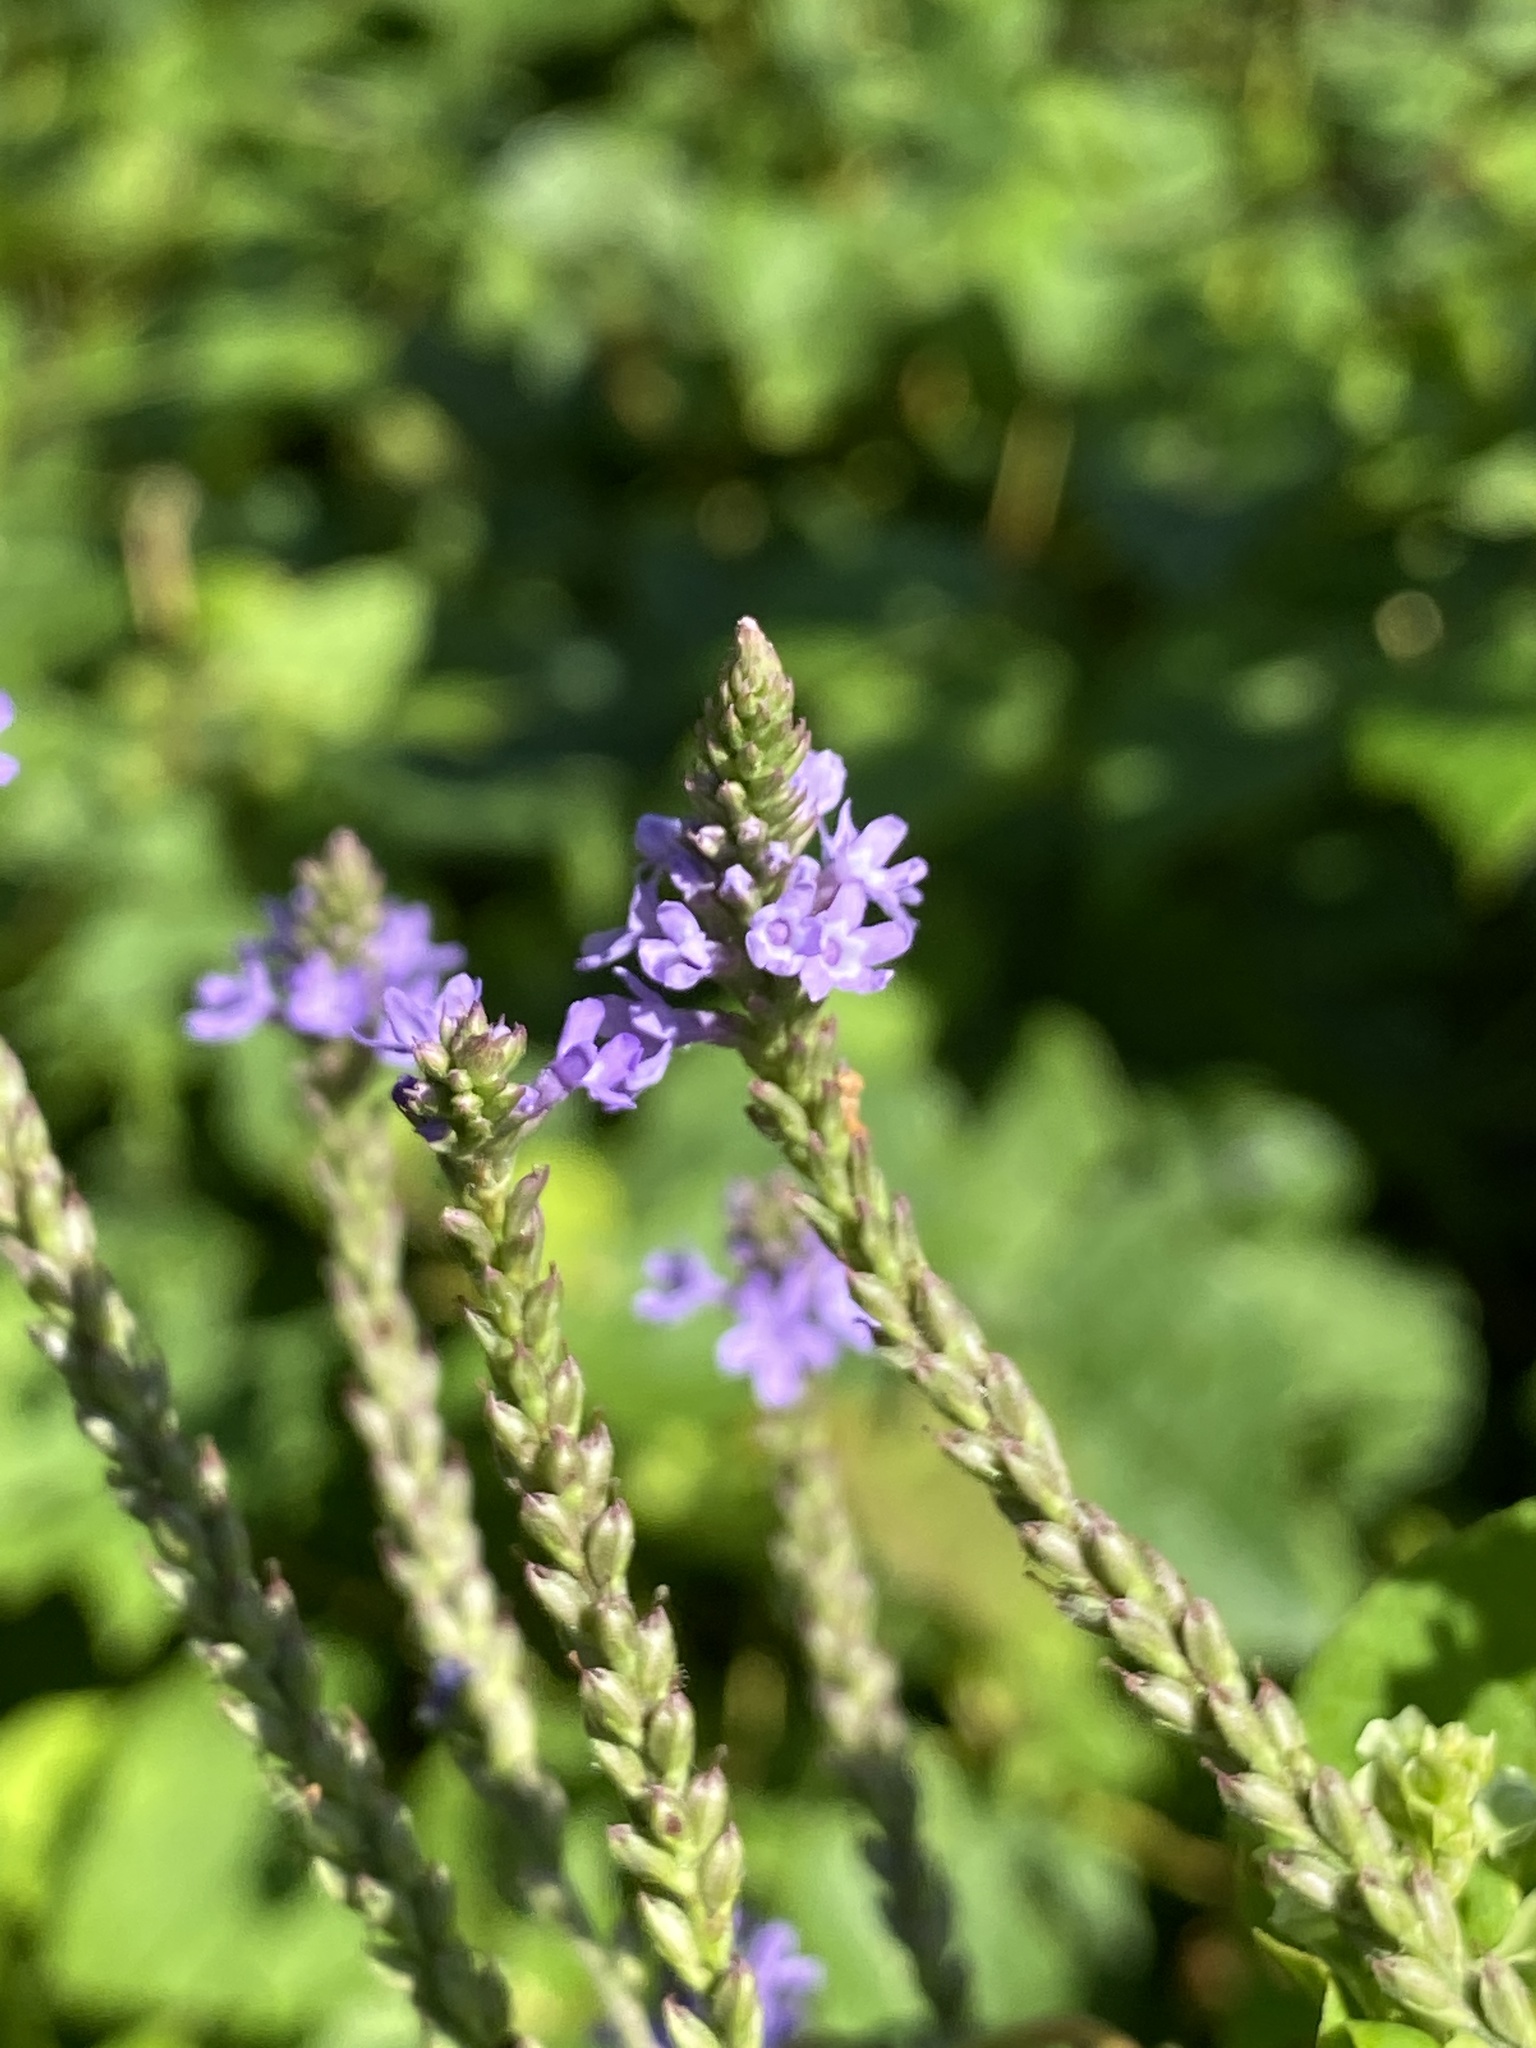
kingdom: Plantae
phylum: Tracheophyta
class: Magnoliopsida
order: Lamiales
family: Verbenaceae
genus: Verbena
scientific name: Verbena hastata
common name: American blue vervain
